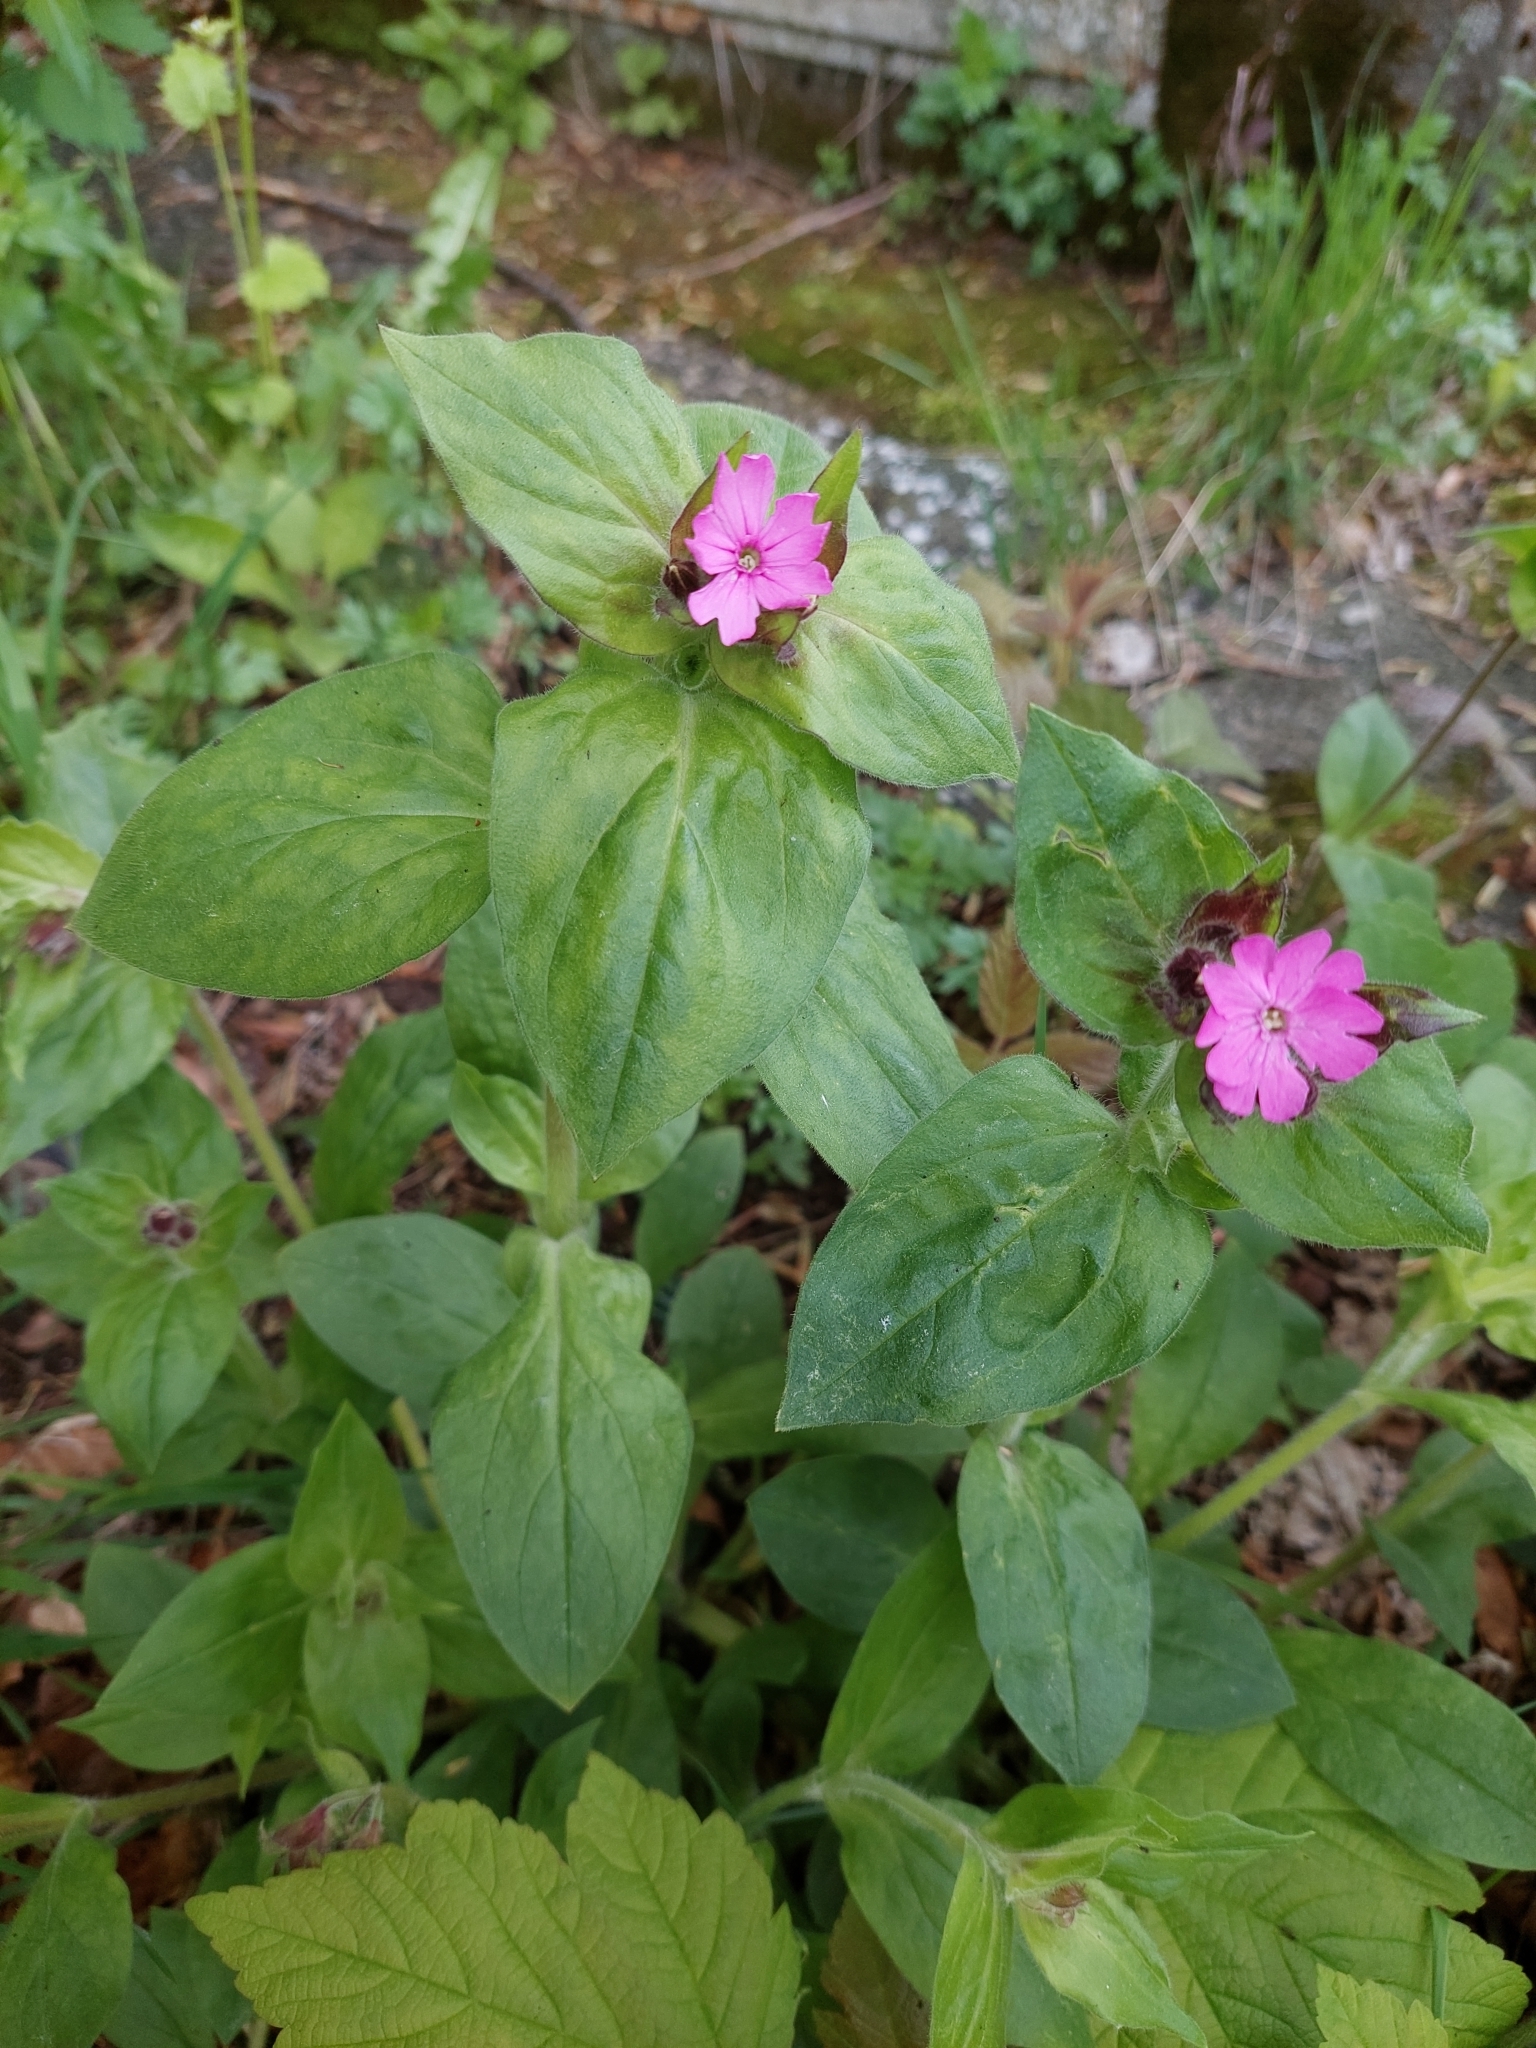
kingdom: Plantae
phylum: Tracheophyta
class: Magnoliopsida
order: Caryophyllales
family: Caryophyllaceae
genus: Silene
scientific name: Silene dioica
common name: Red campion
